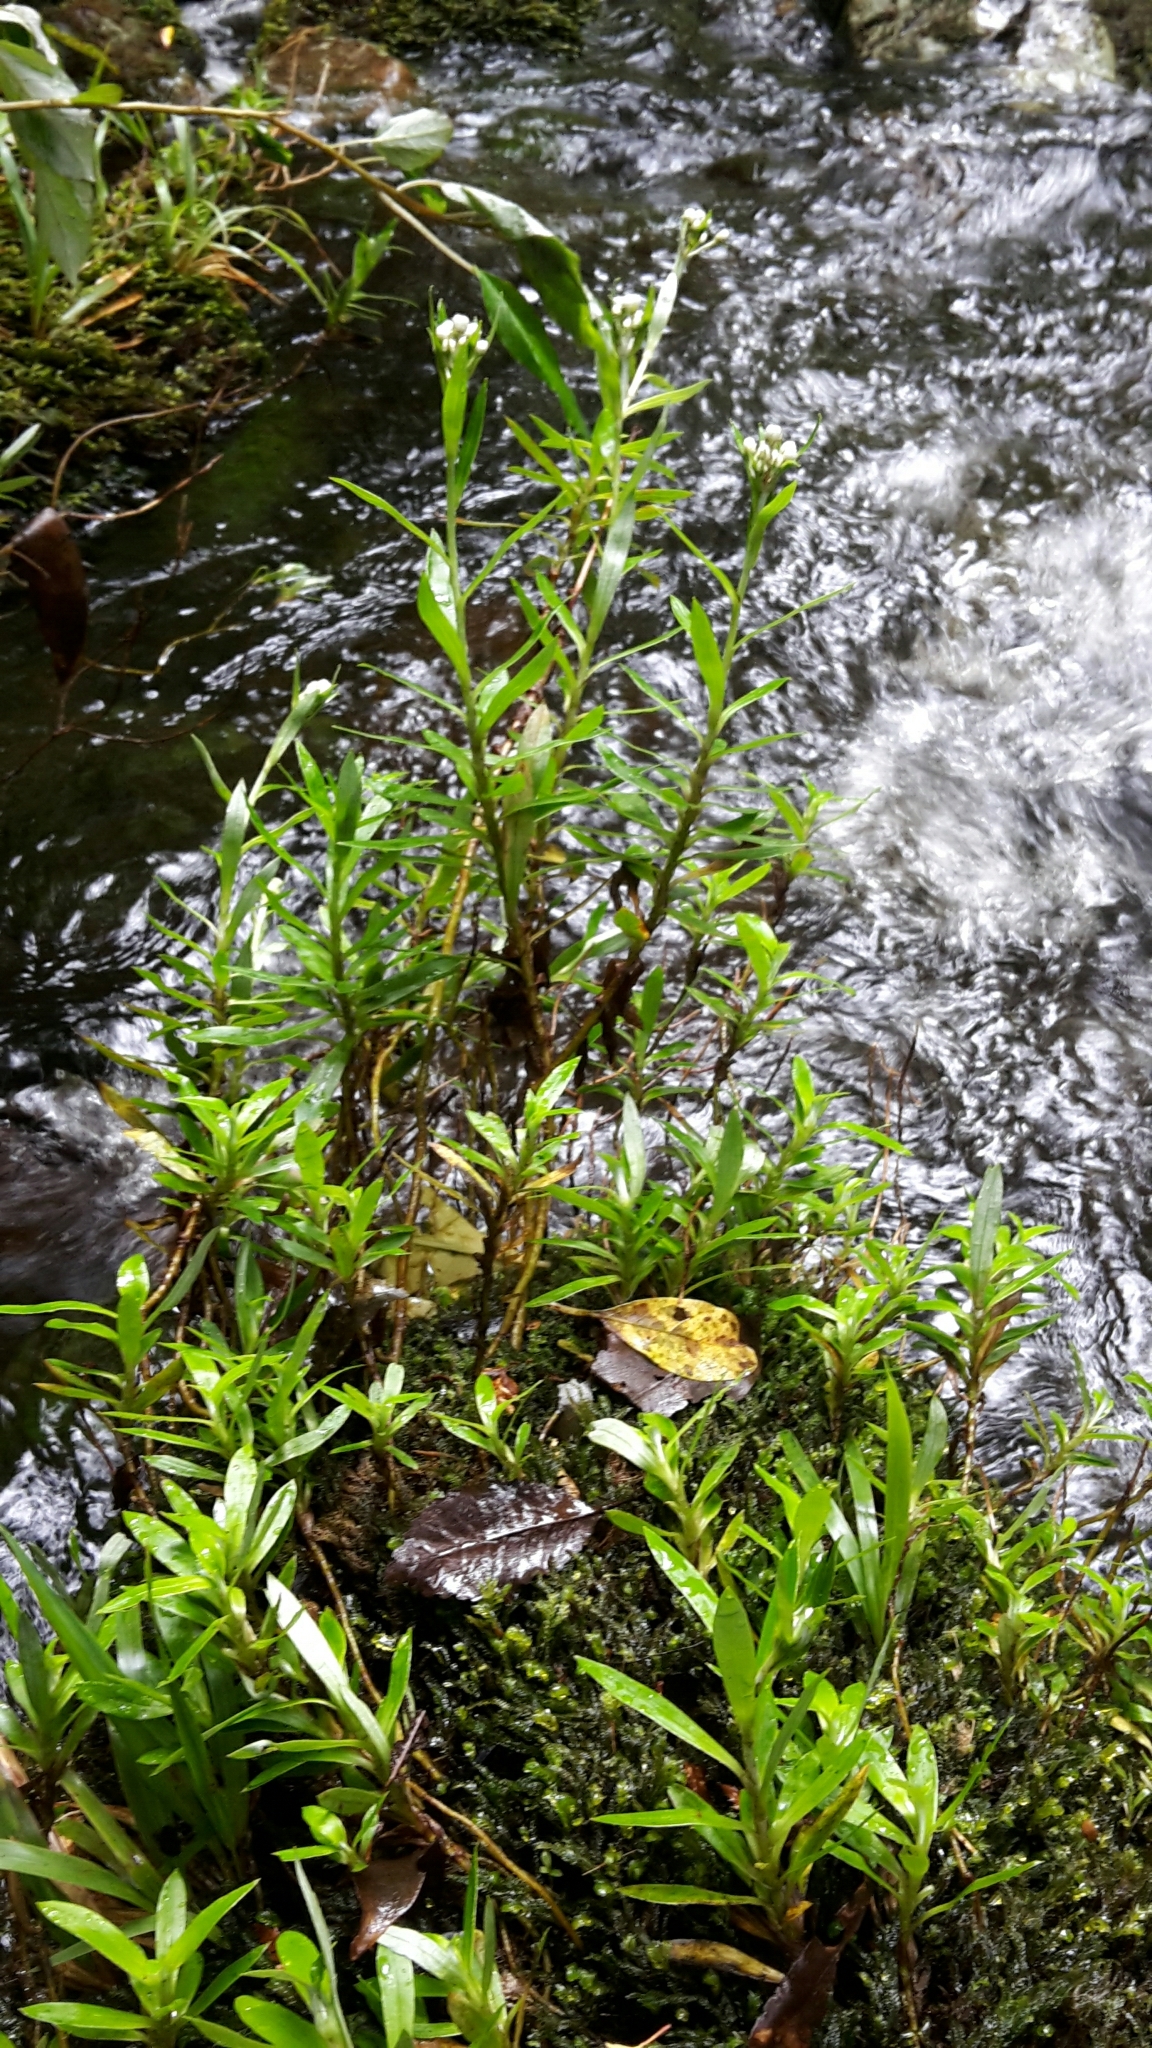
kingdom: Plantae
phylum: Tracheophyta
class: Magnoliopsida
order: Asterales
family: Asteraceae
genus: Anaphalioides
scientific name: Anaphalioides trinervis
